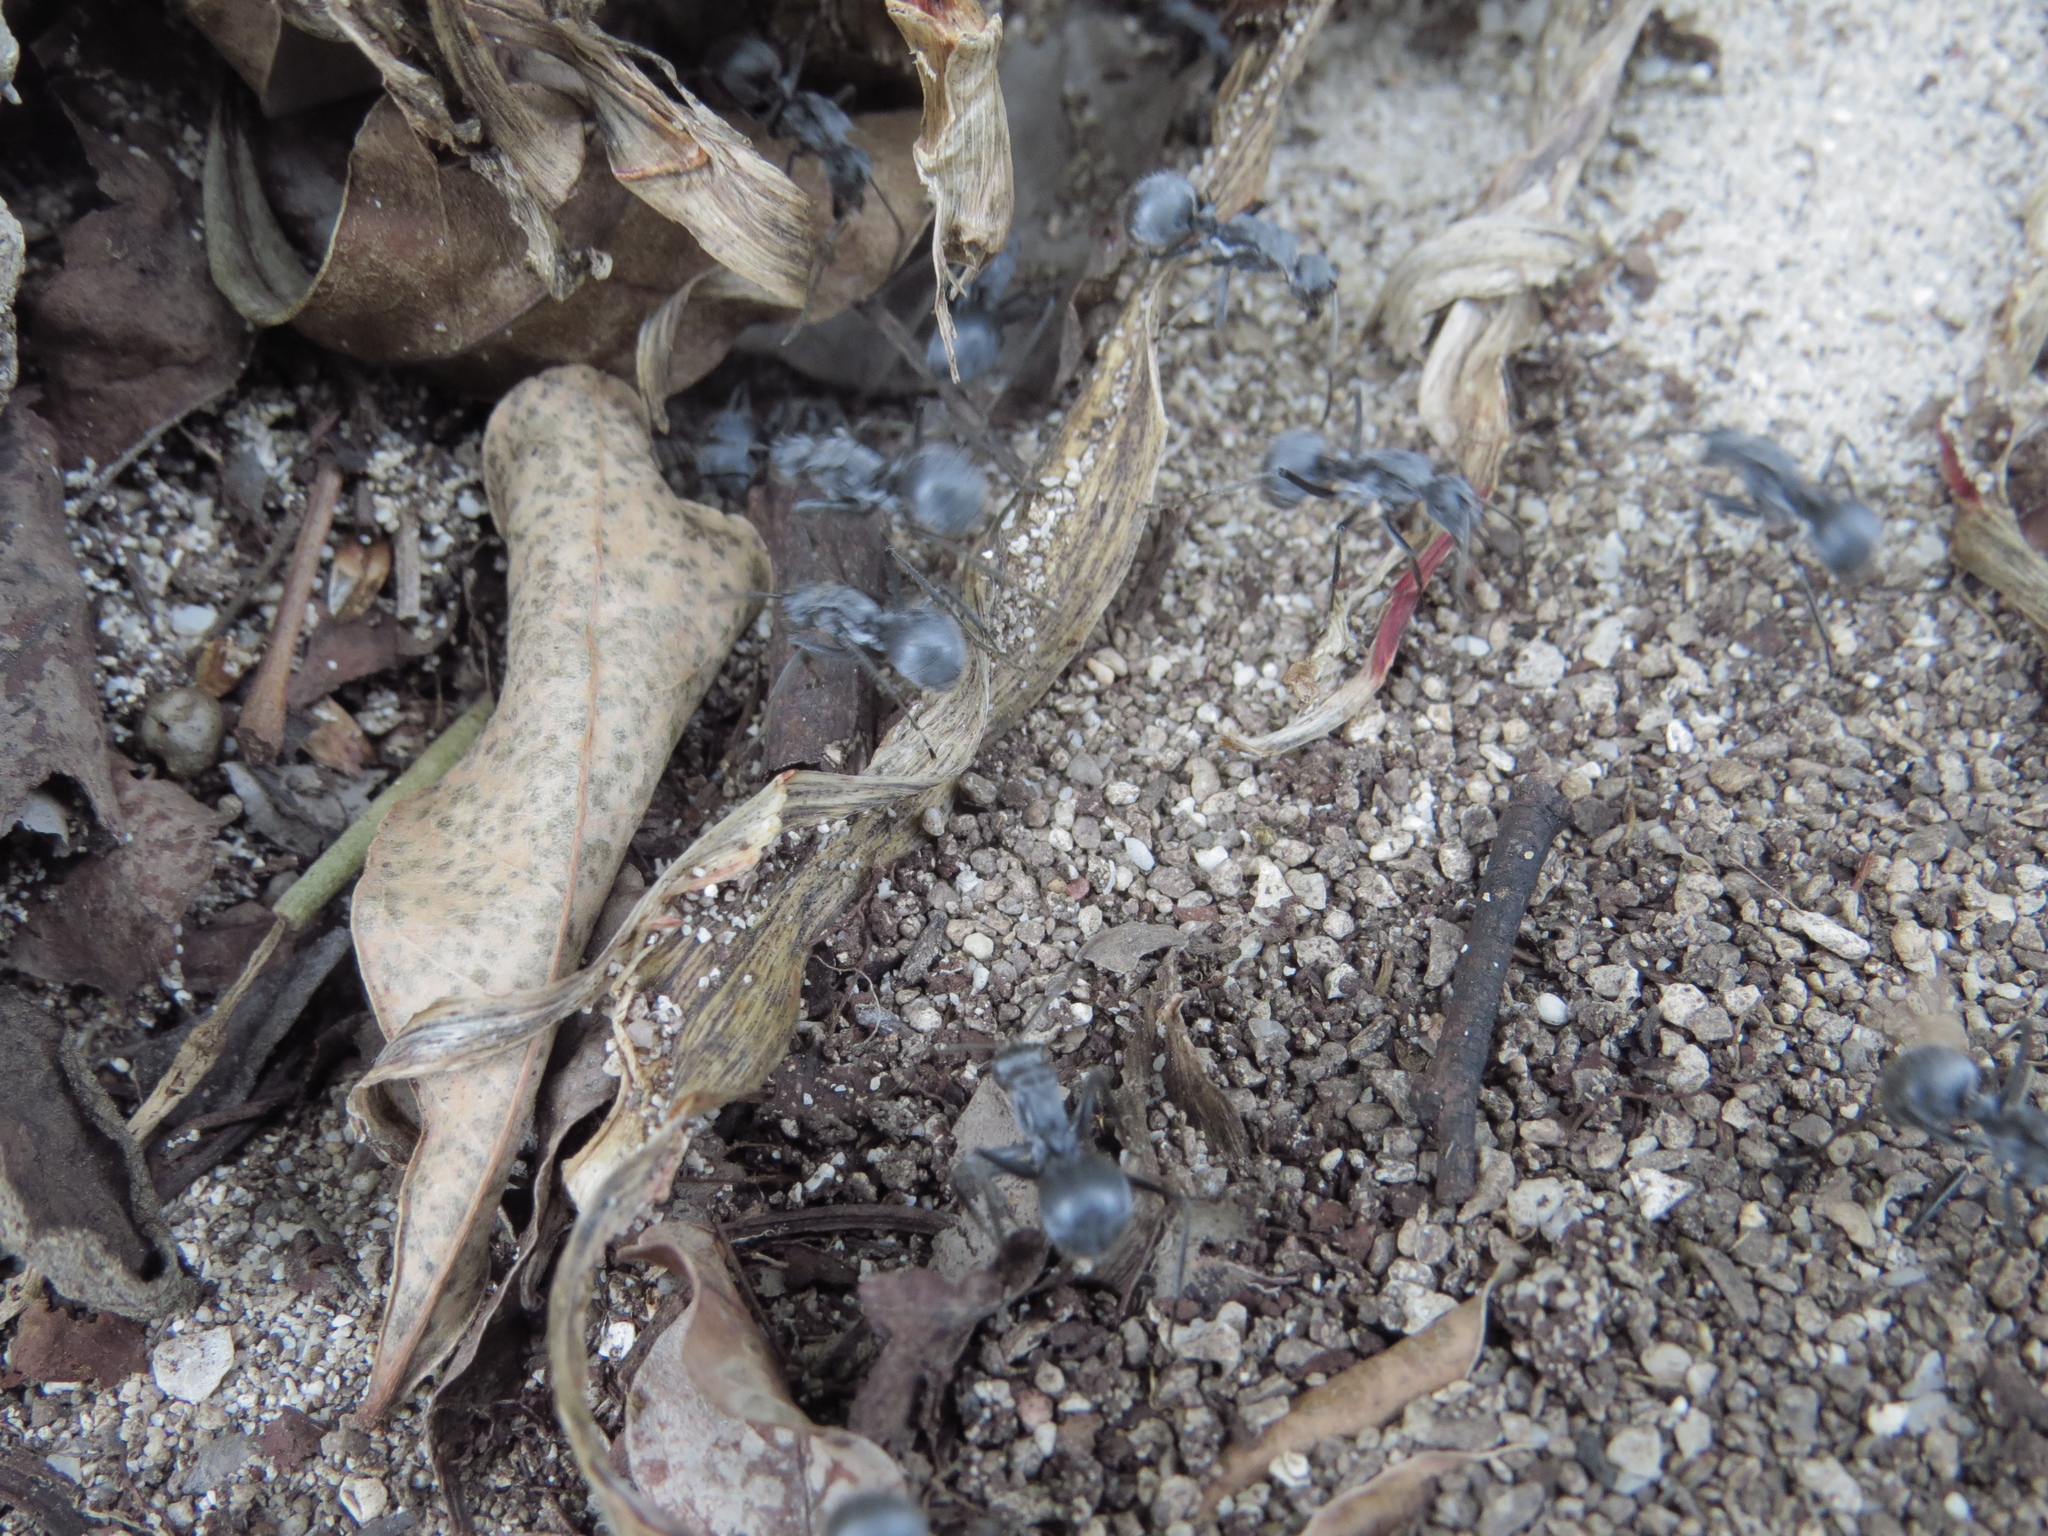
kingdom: Animalia
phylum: Arthropoda
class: Insecta
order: Hymenoptera
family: Formicidae
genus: Polyrhachis
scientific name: Polyrhachis schistacea
